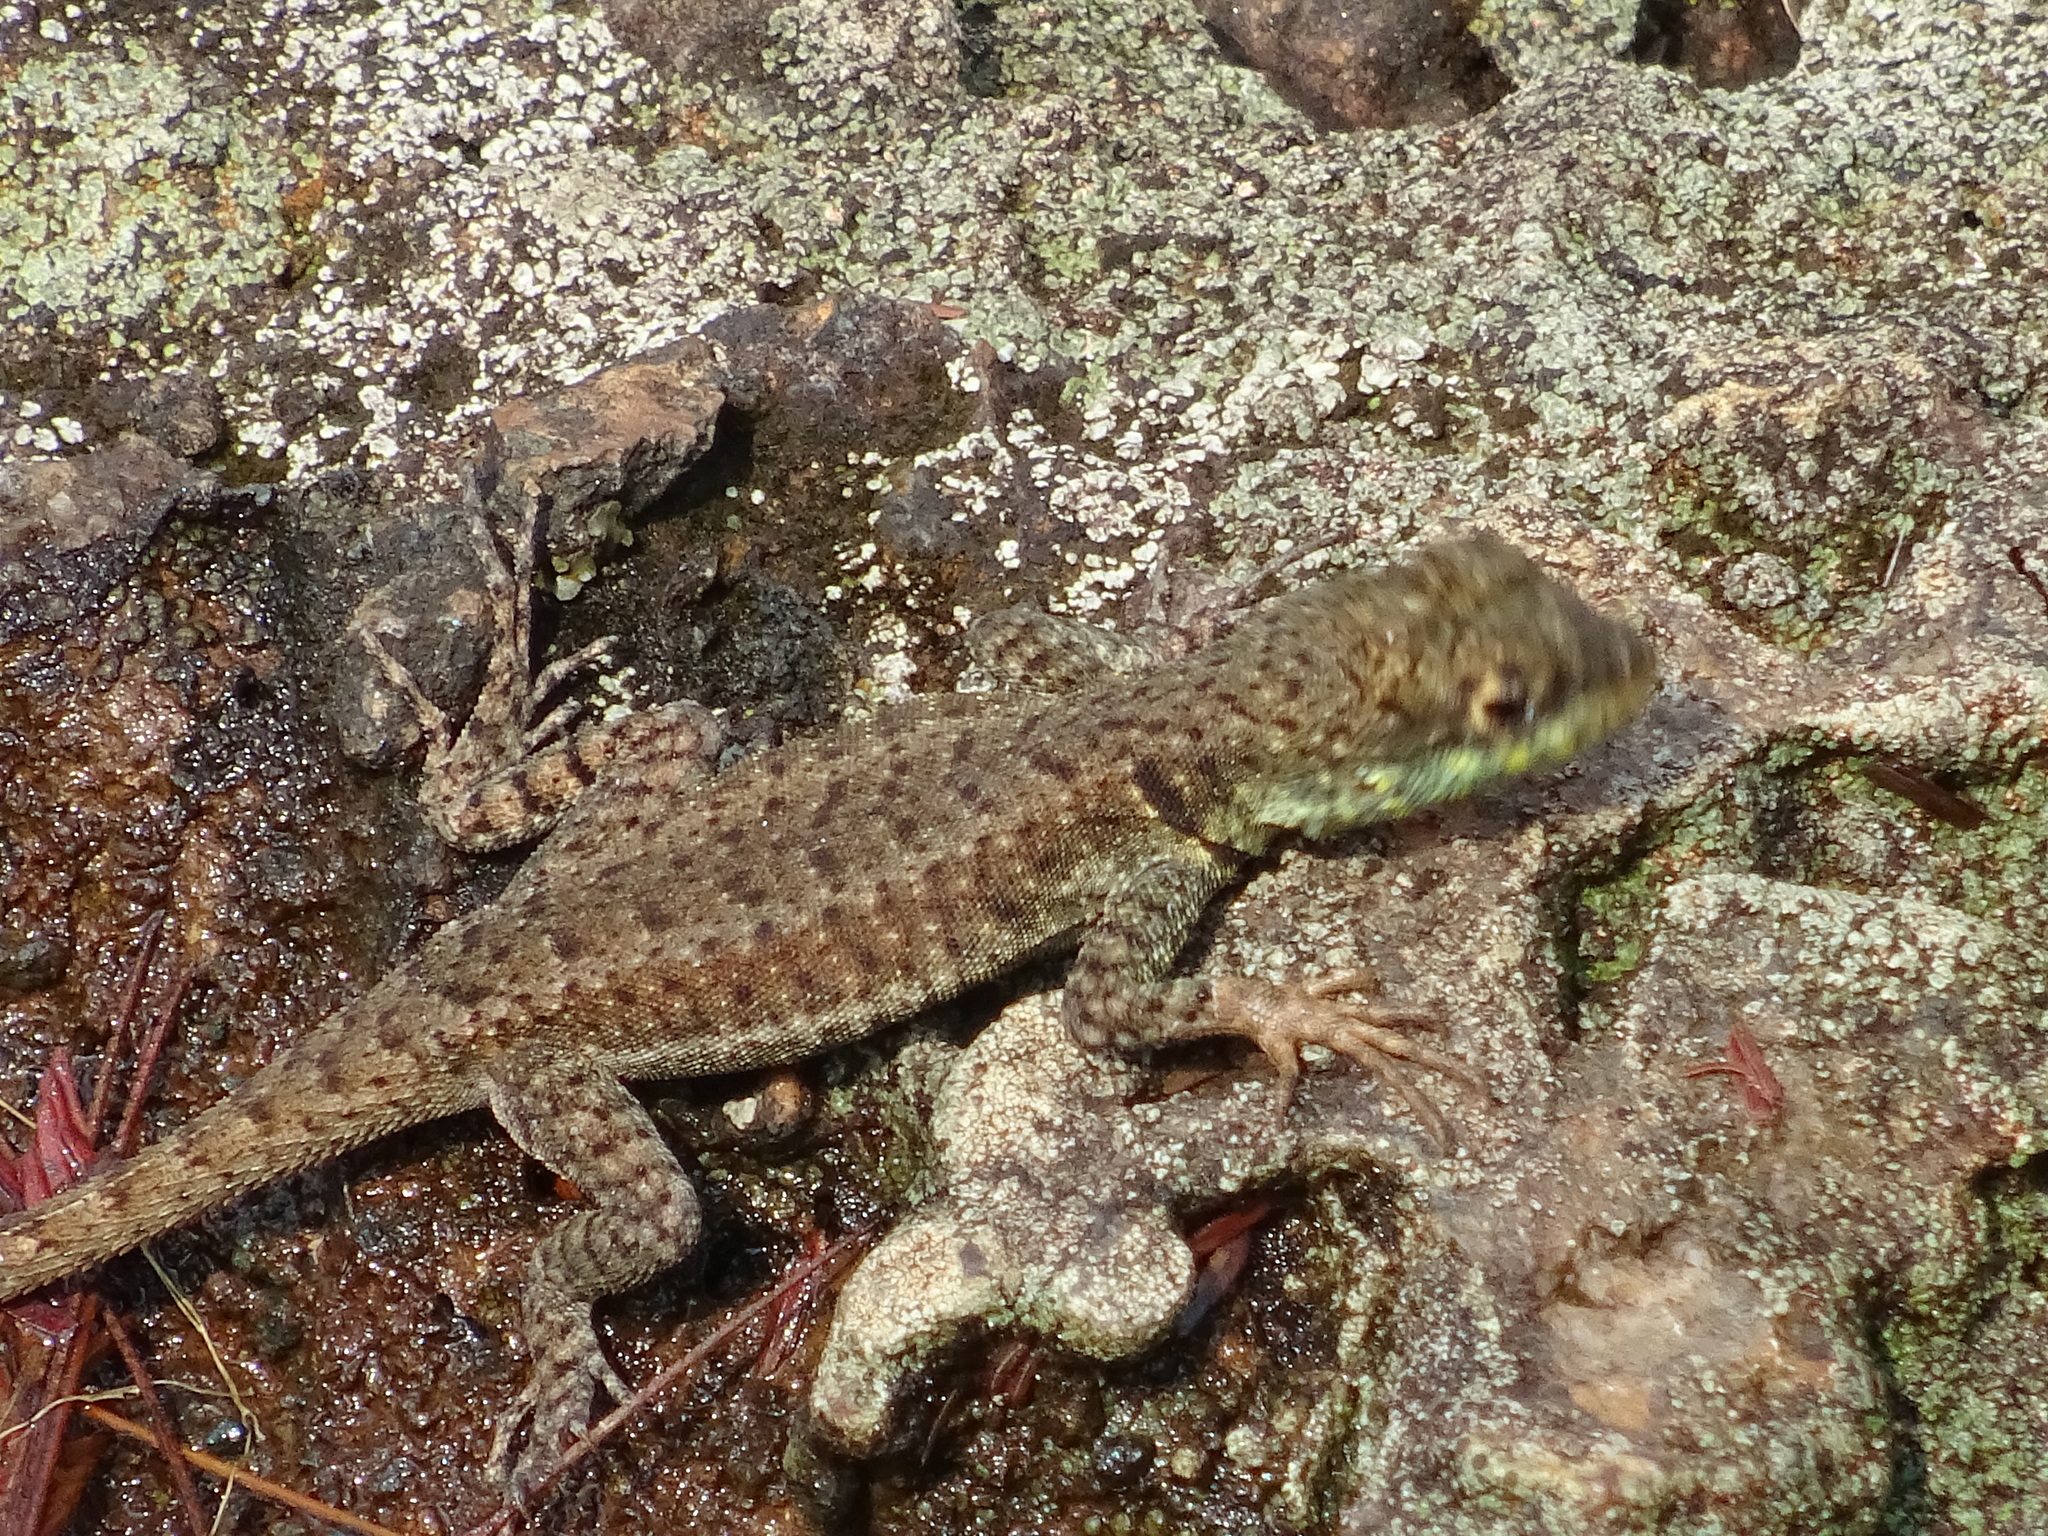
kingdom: Animalia
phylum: Chordata
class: Squamata
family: Tropiduridae
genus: Tropidurus
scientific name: Tropidurus catalanensis
